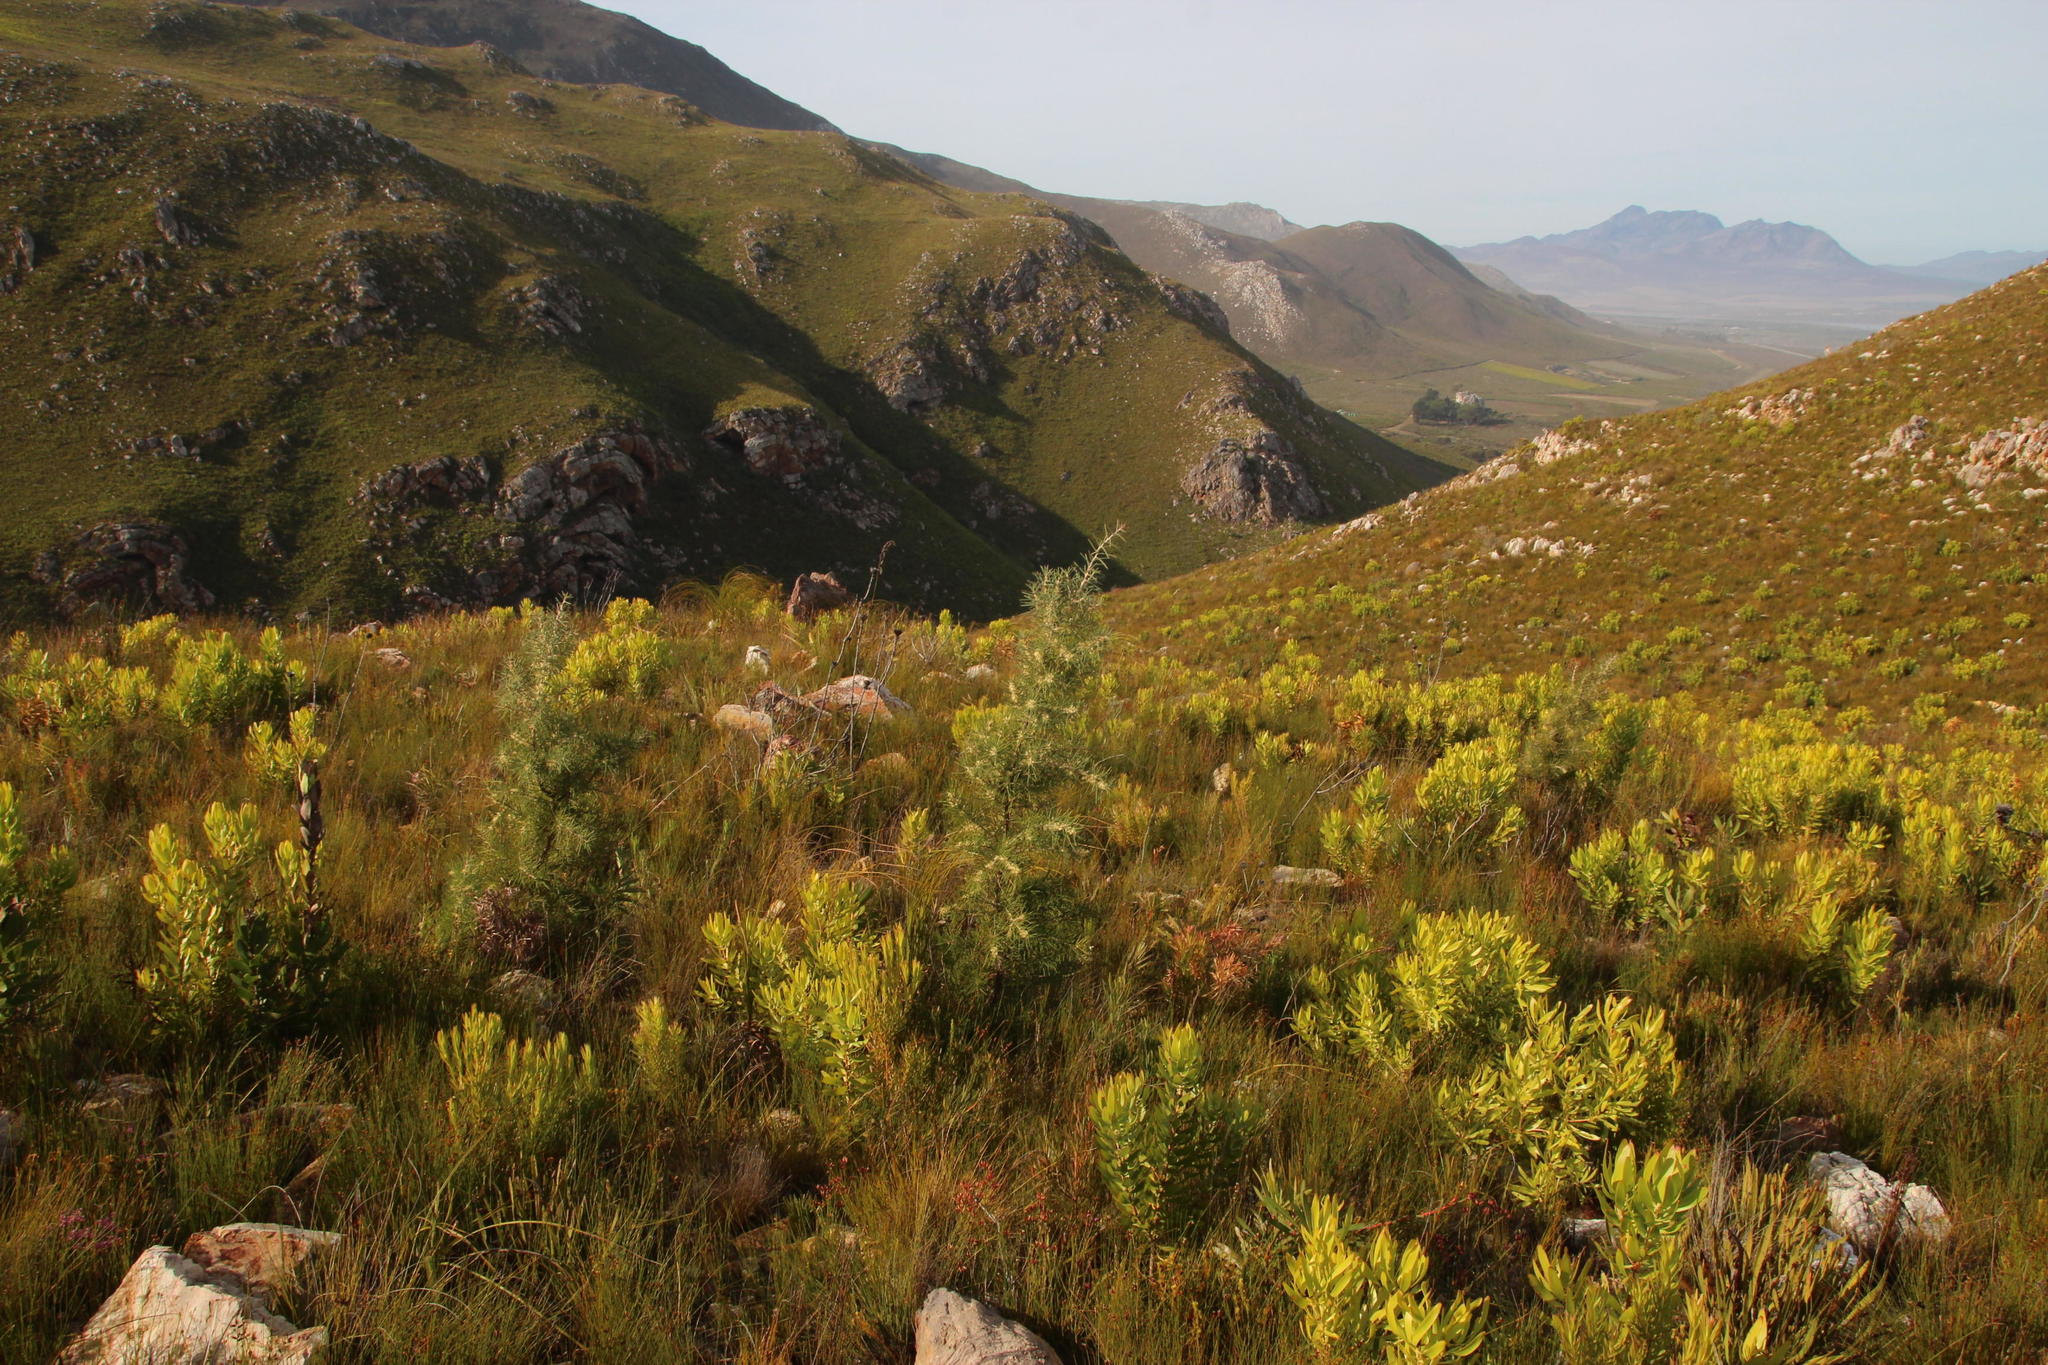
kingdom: Plantae
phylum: Tracheophyta
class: Magnoliopsida
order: Proteales
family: Proteaceae
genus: Hakea
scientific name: Hakea gibbosa
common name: Rock hakea
